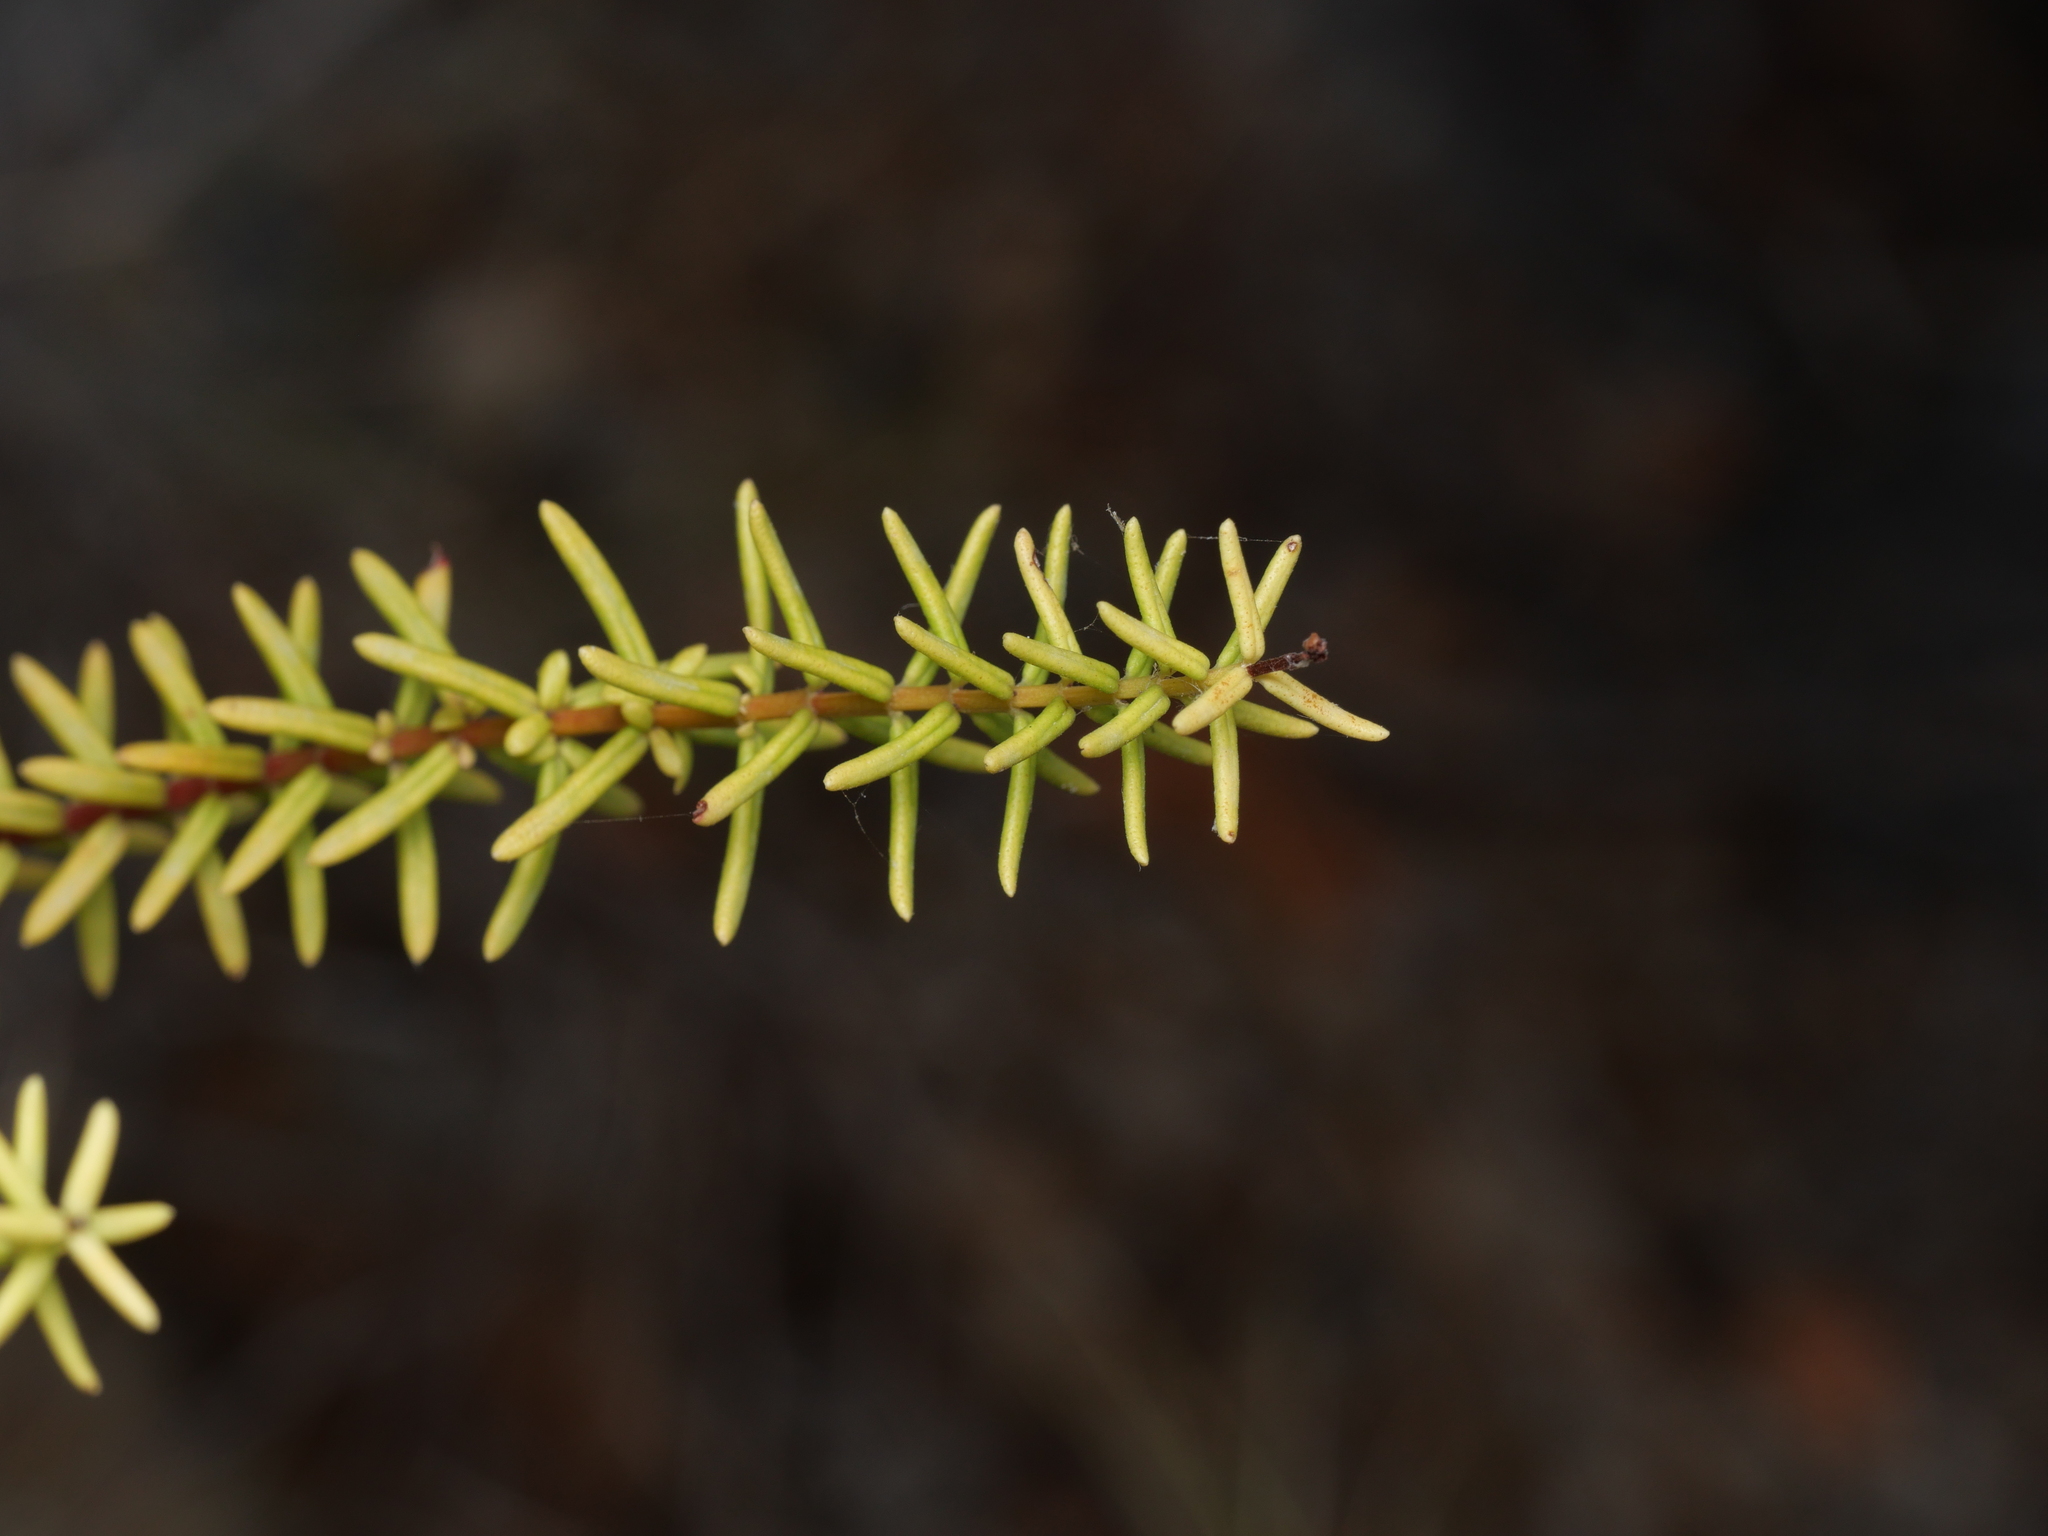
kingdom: Plantae
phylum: Tracheophyta
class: Magnoliopsida
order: Malpighiales
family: Hypericaceae
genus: Hypericum
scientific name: Hypericum empetrifolium
